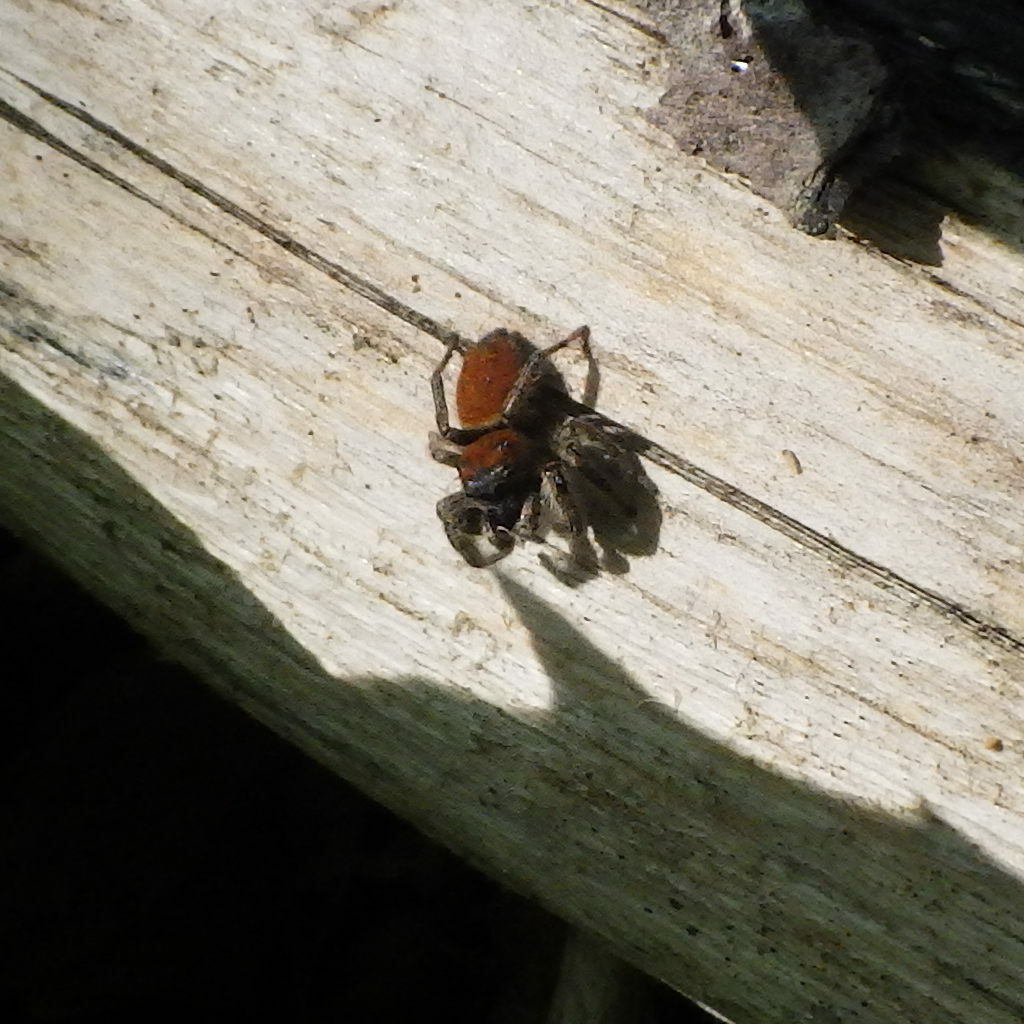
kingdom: Animalia
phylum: Arthropoda
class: Arachnida
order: Araneae
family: Salticidae
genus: Phidippus
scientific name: Phidippus whitmani
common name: Whitman's jumping spider
